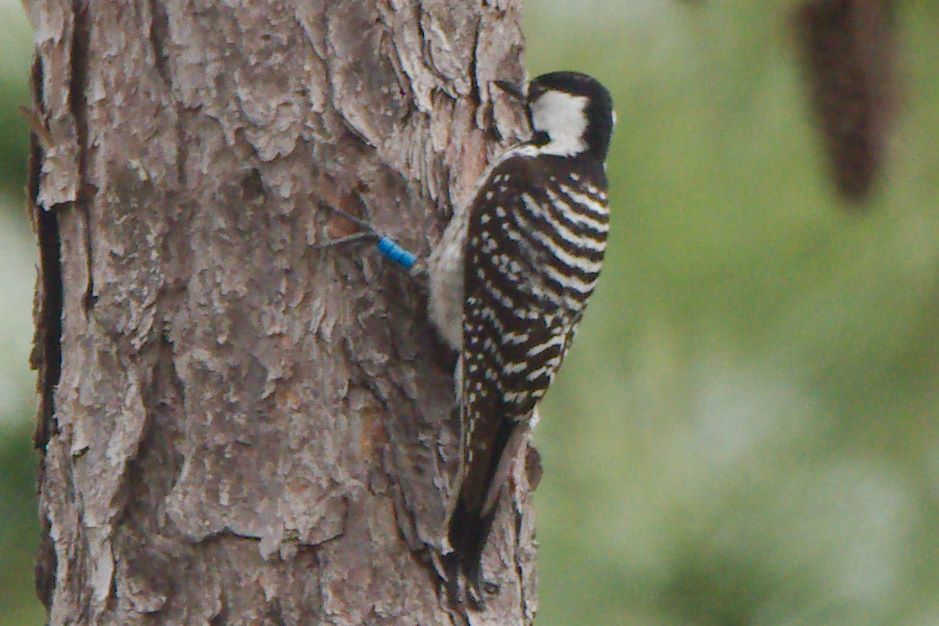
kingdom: Animalia
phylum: Chordata
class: Aves
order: Piciformes
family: Picidae
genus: Leuconotopicus
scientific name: Leuconotopicus borealis
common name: Red-cockaded woodpecker
